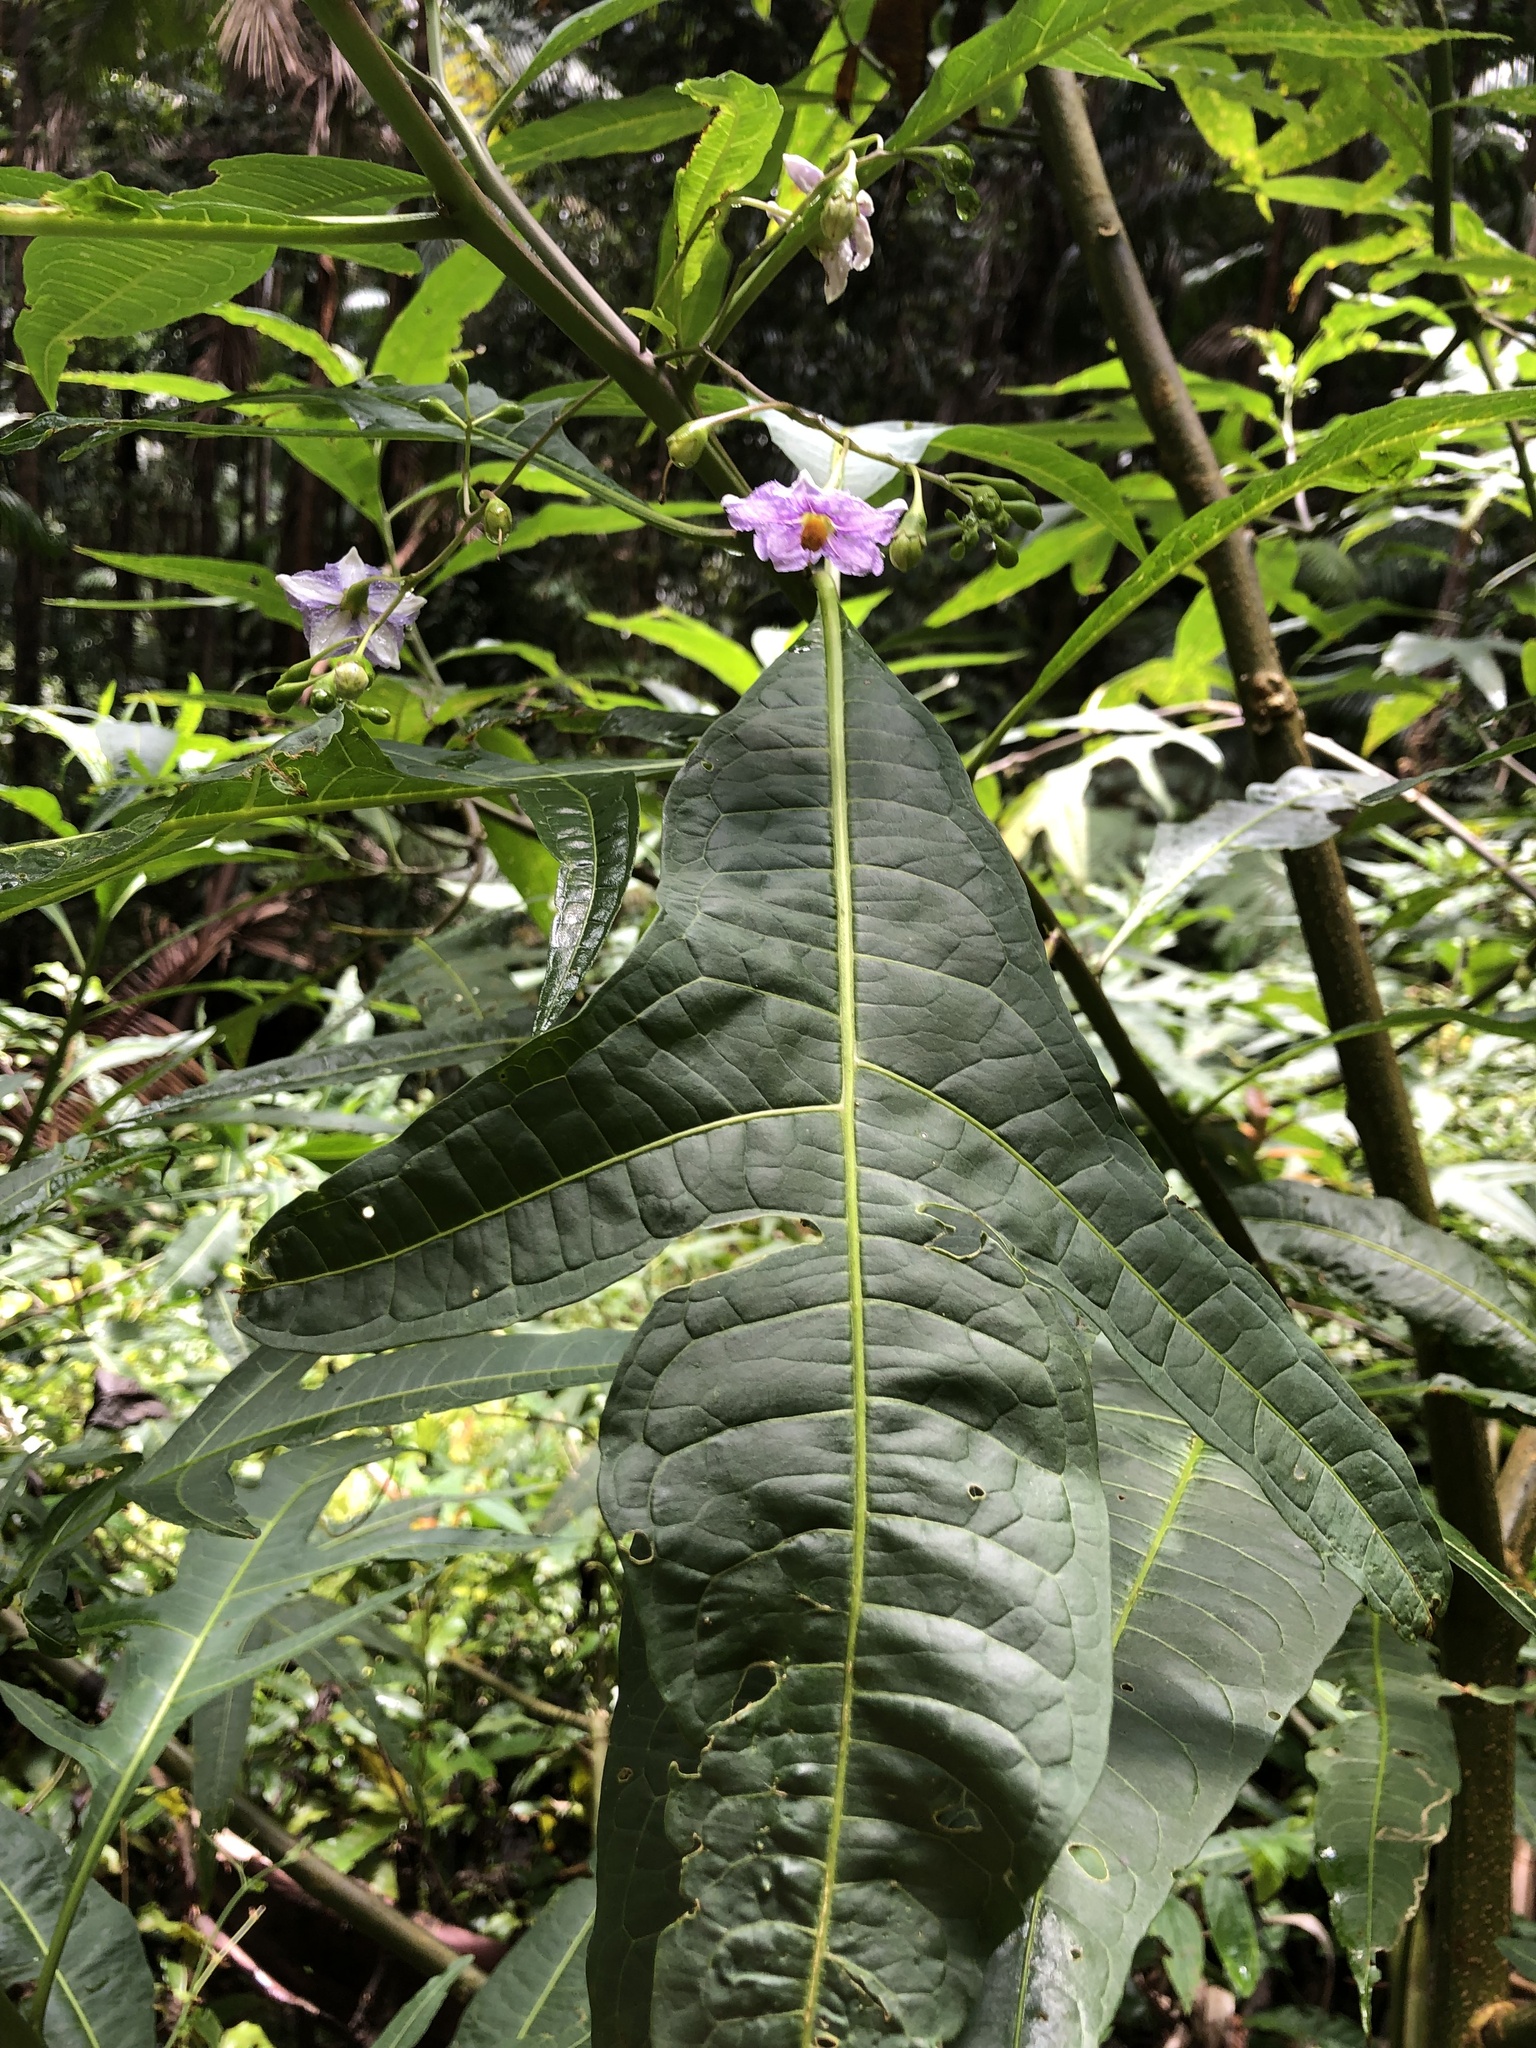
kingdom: Plantae
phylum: Tracheophyta
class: Magnoliopsida
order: Solanales
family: Solanaceae
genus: Solanum
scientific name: Solanum aviculare
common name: New zealand nightshade
